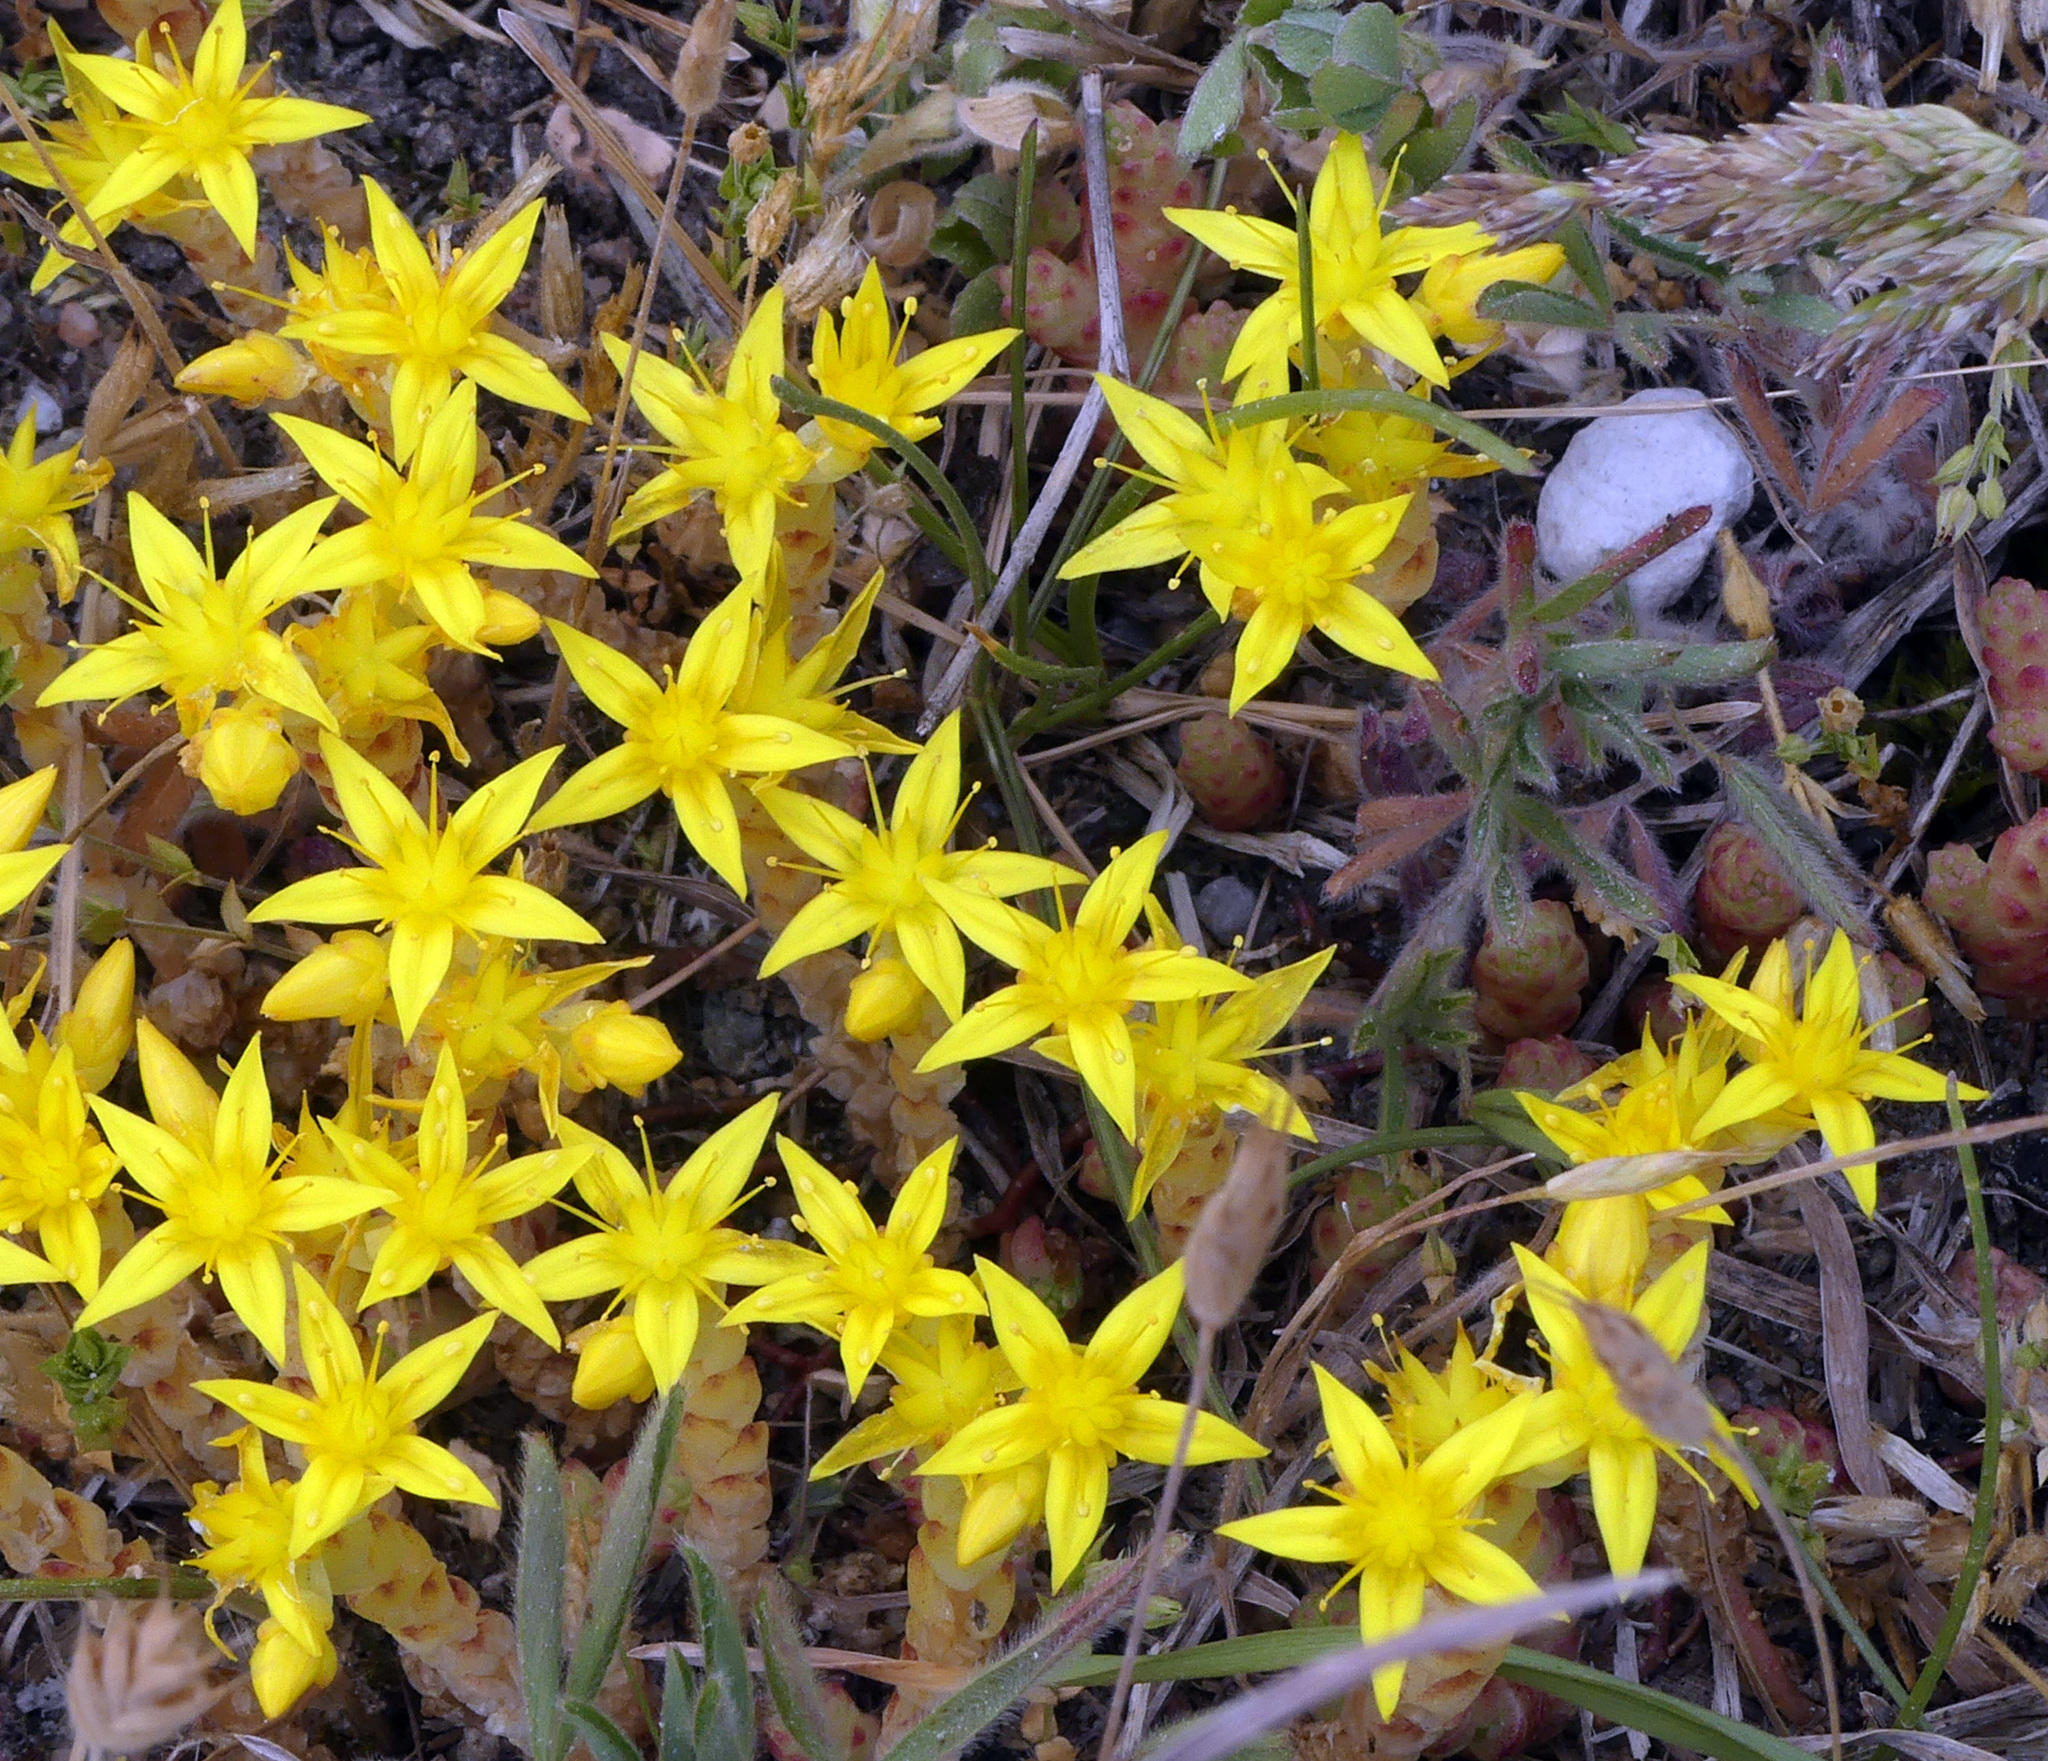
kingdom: Plantae
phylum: Tracheophyta
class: Magnoliopsida
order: Saxifragales
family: Crassulaceae
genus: Sedum
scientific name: Sedum acre
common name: Biting stonecrop
